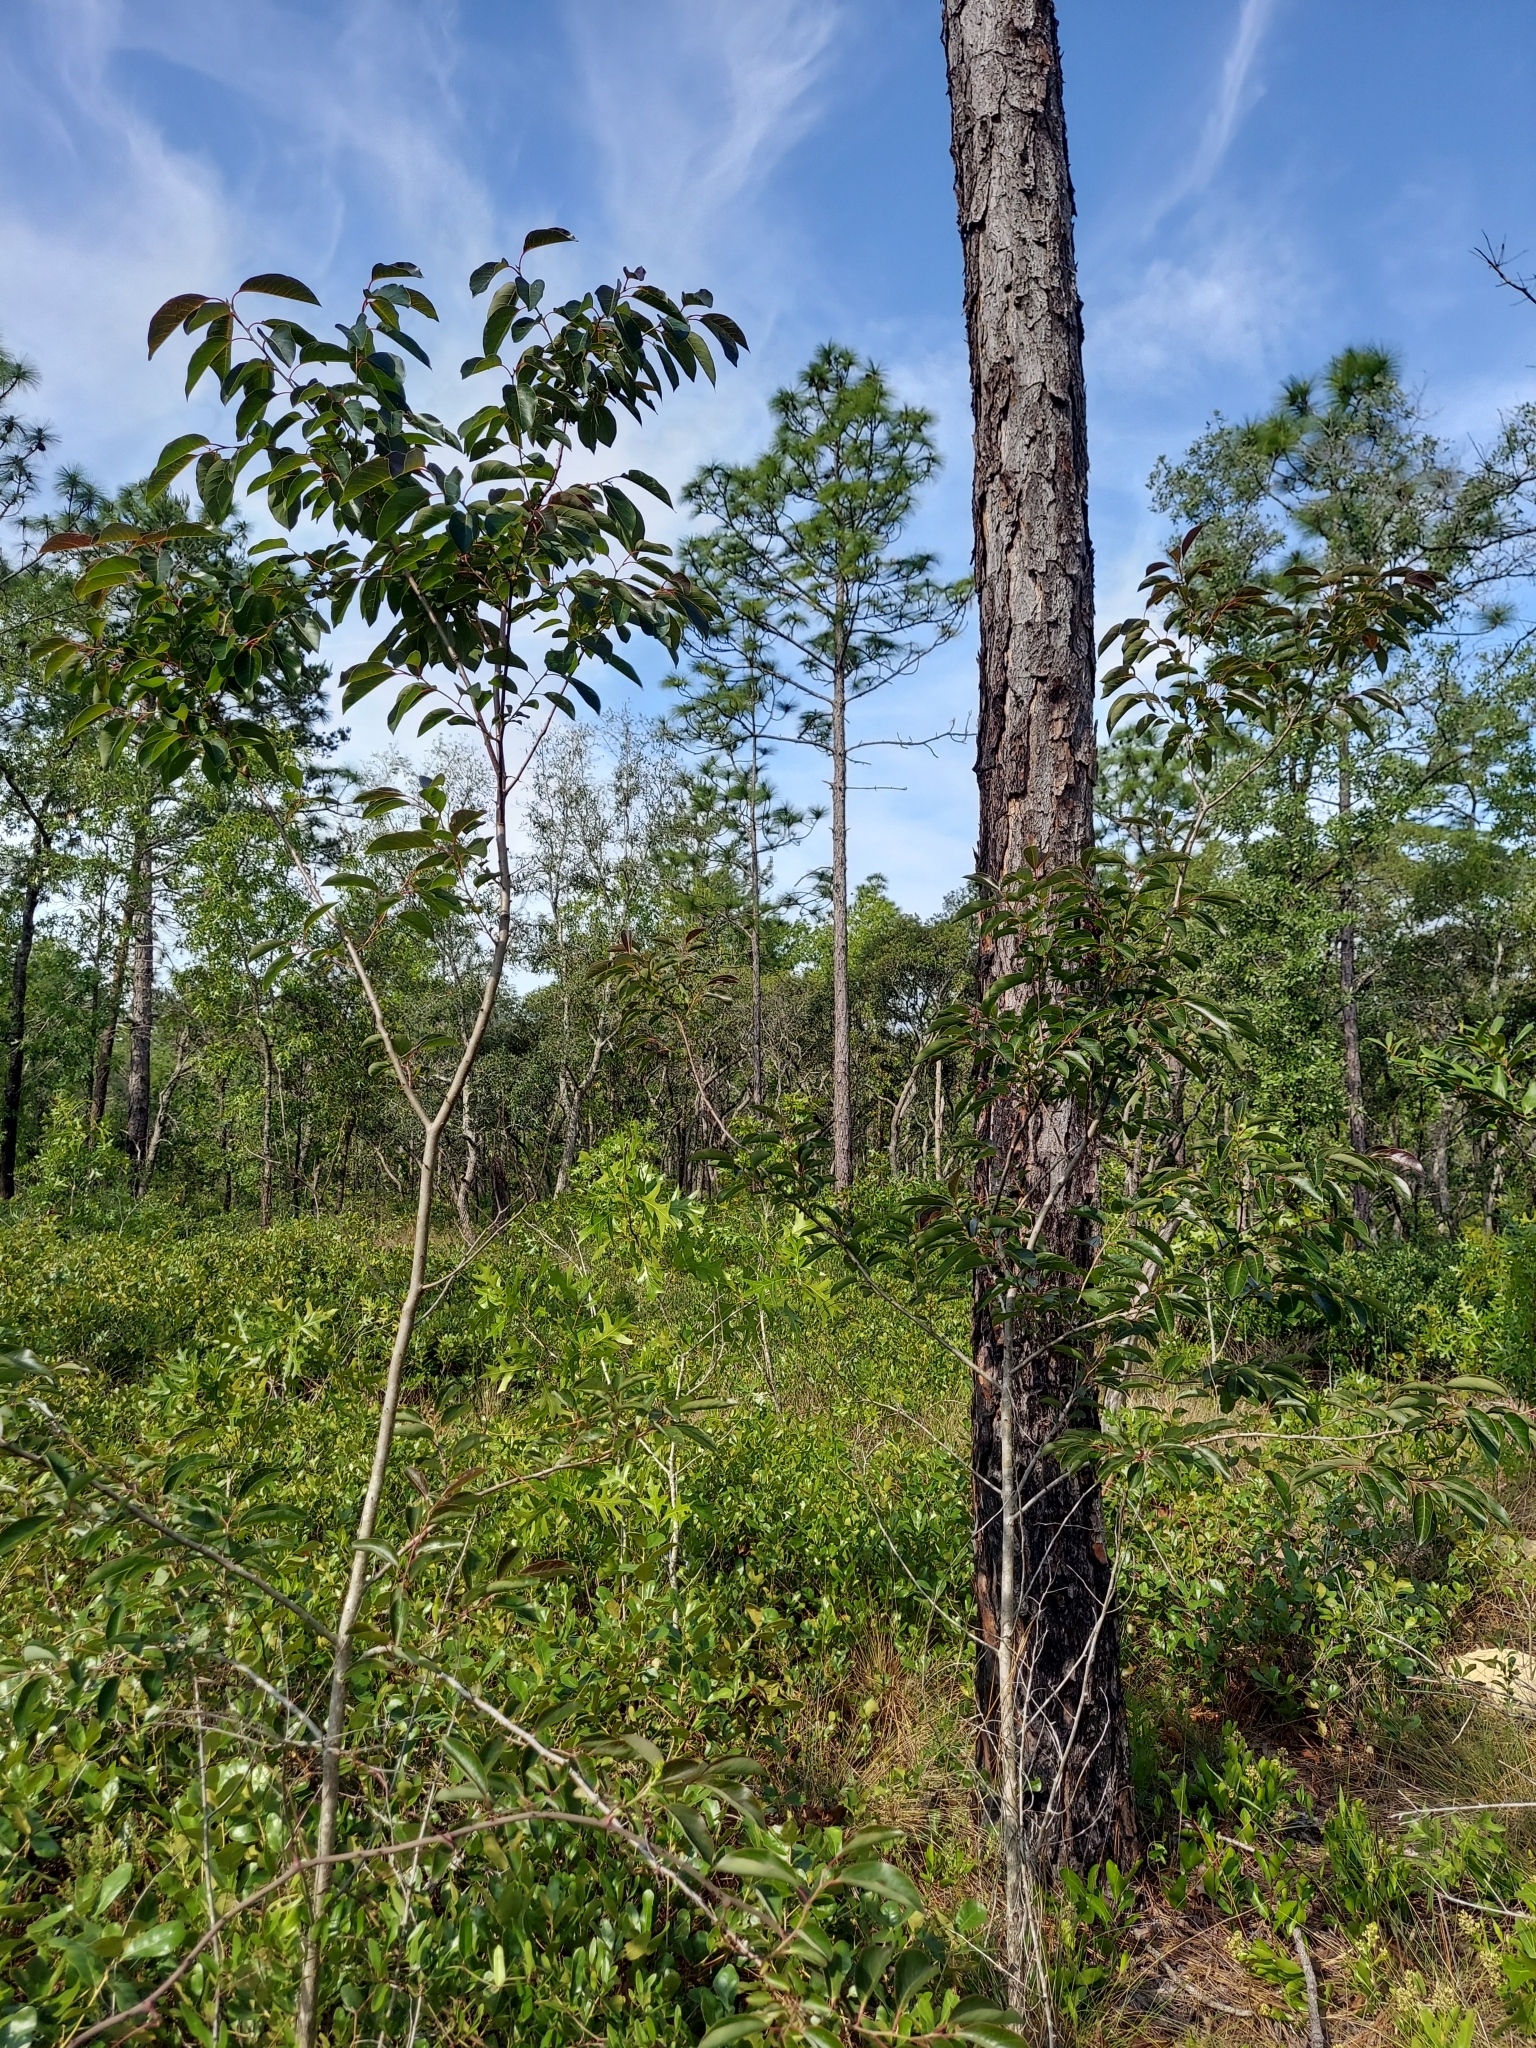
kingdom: Plantae
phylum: Tracheophyta
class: Magnoliopsida
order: Ericales
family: Ebenaceae
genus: Diospyros
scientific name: Diospyros virginiana
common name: Persimmon
